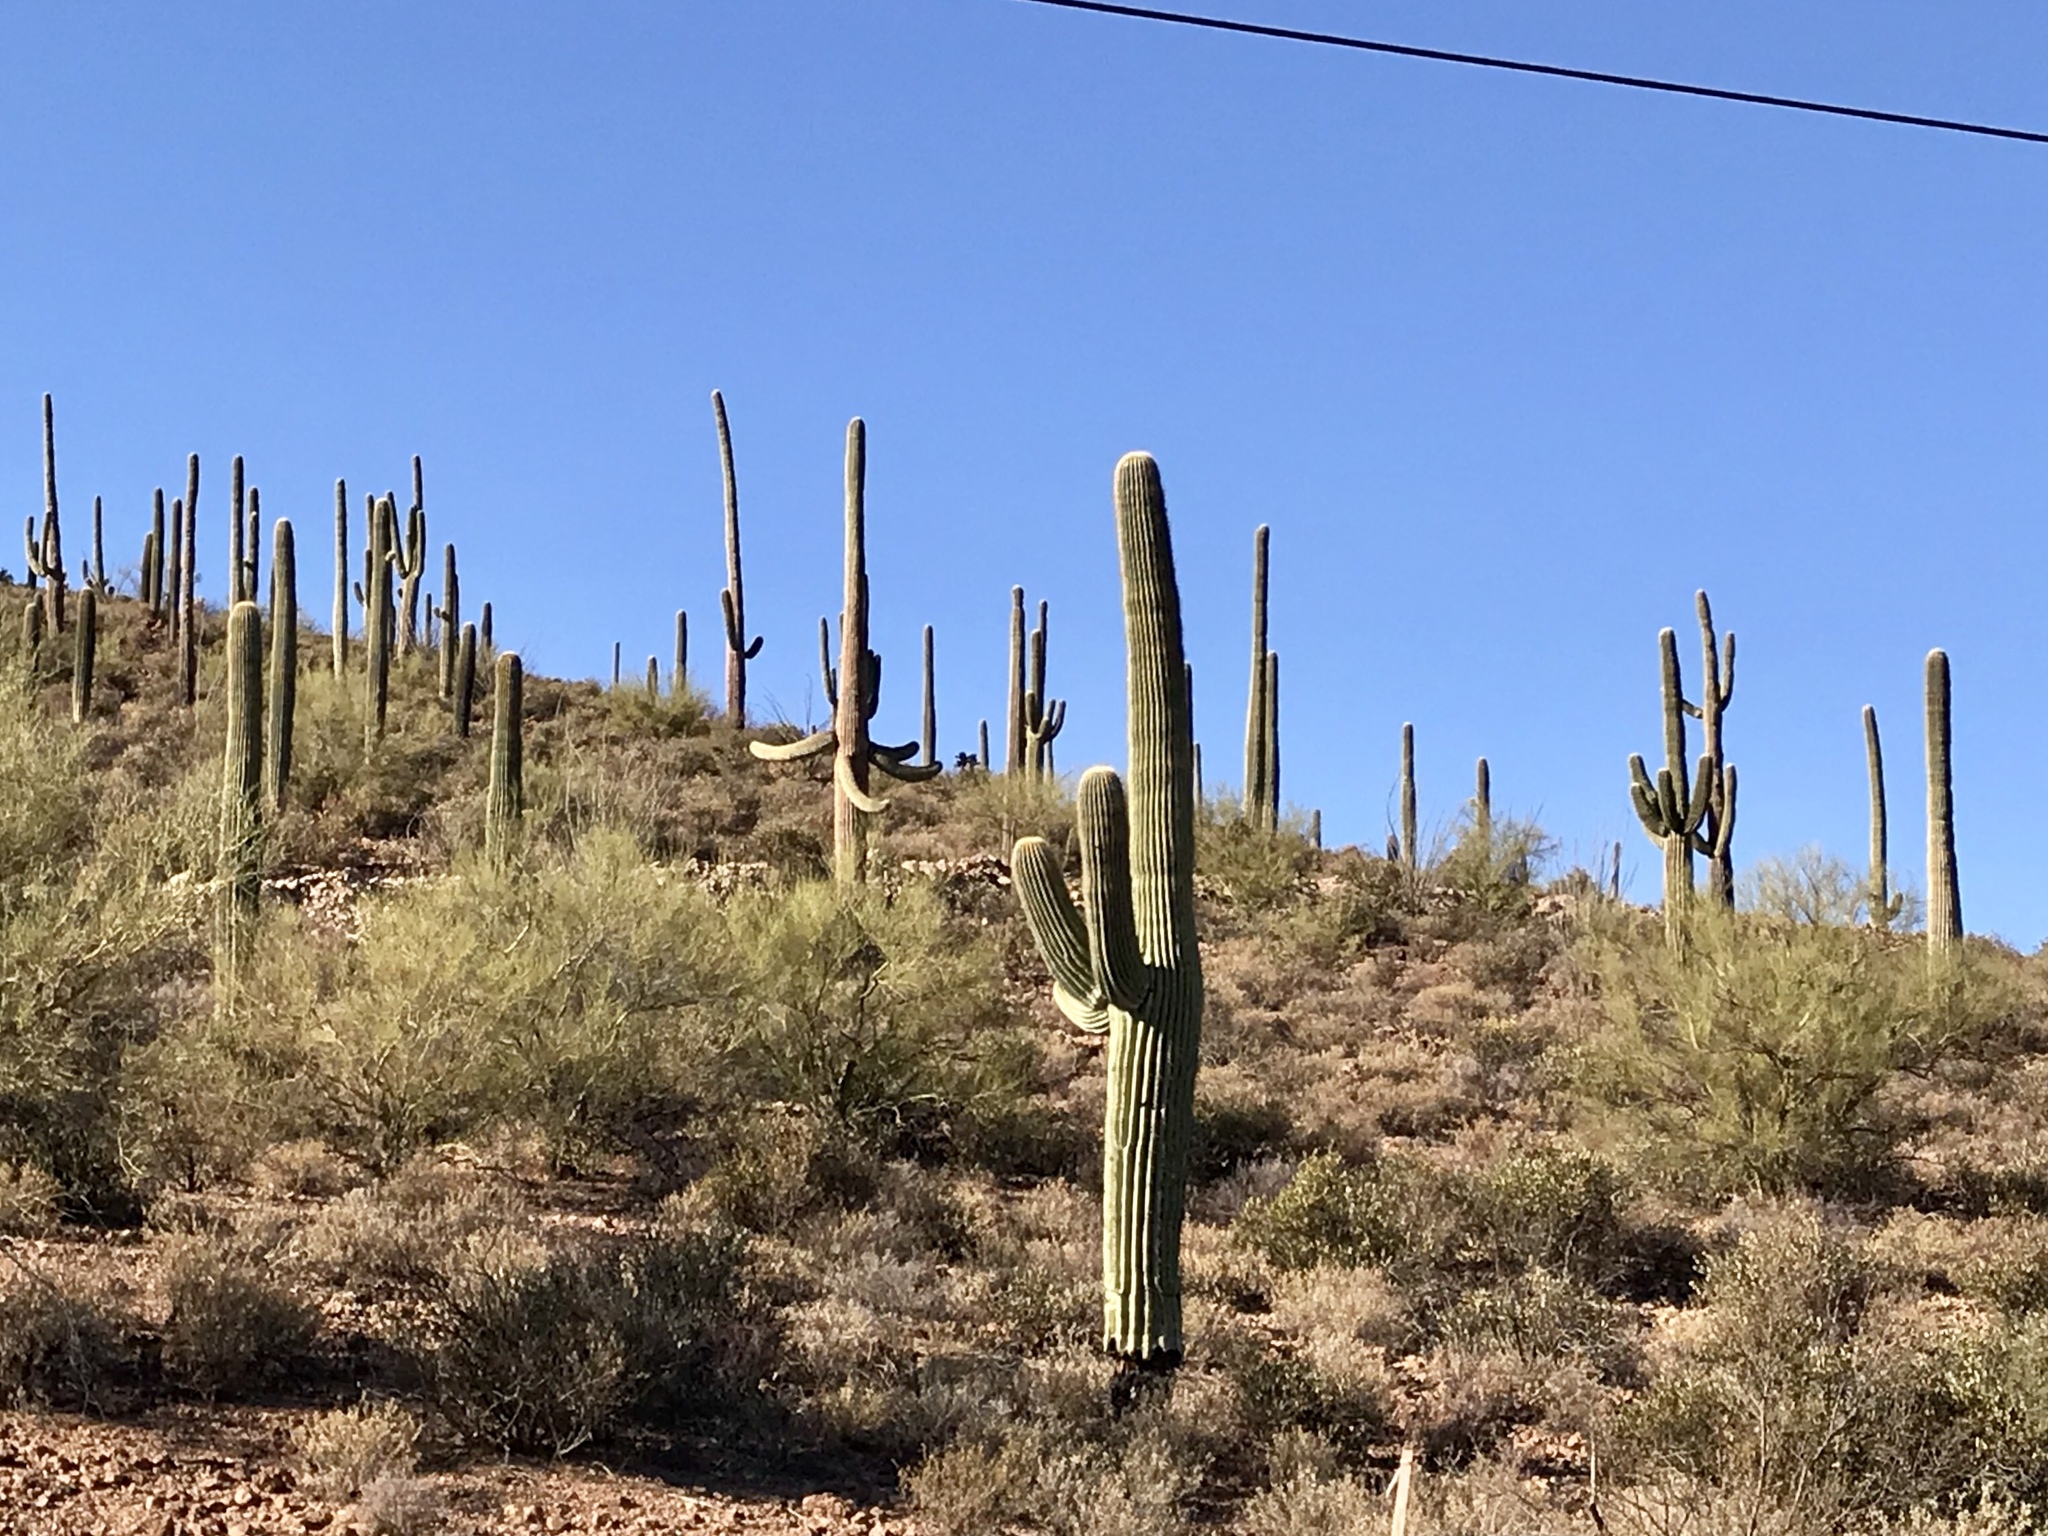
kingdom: Plantae
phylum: Tracheophyta
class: Magnoliopsida
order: Caryophyllales
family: Cactaceae
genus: Carnegiea
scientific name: Carnegiea gigantea
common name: Saguaro
